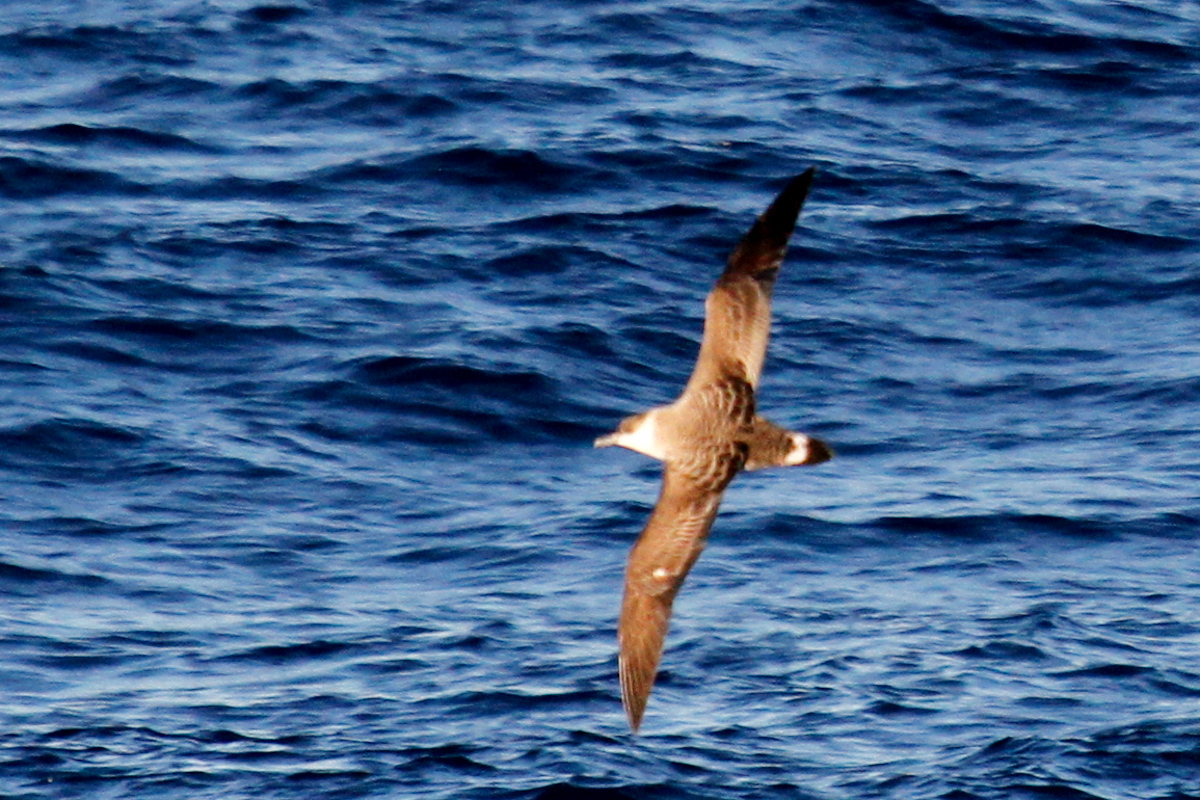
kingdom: Animalia
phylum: Chordata
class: Aves
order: Procellariiformes
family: Procellariidae
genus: Puffinus
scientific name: Puffinus gravis
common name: Great shearwater
